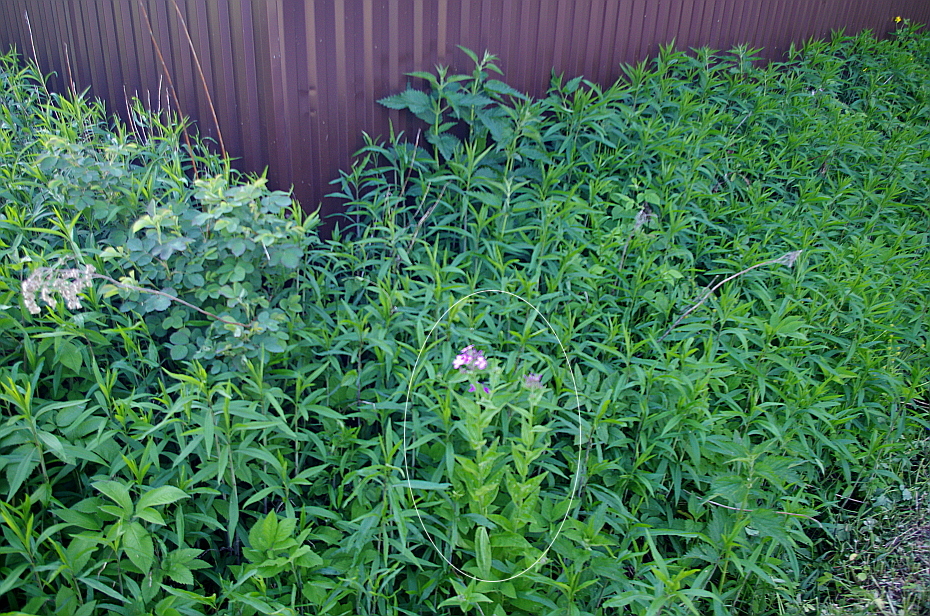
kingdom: Plantae
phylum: Tracheophyta
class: Magnoliopsida
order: Brassicales
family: Brassicaceae
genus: Hesperis
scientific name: Hesperis matronalis
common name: Dame's-violet
